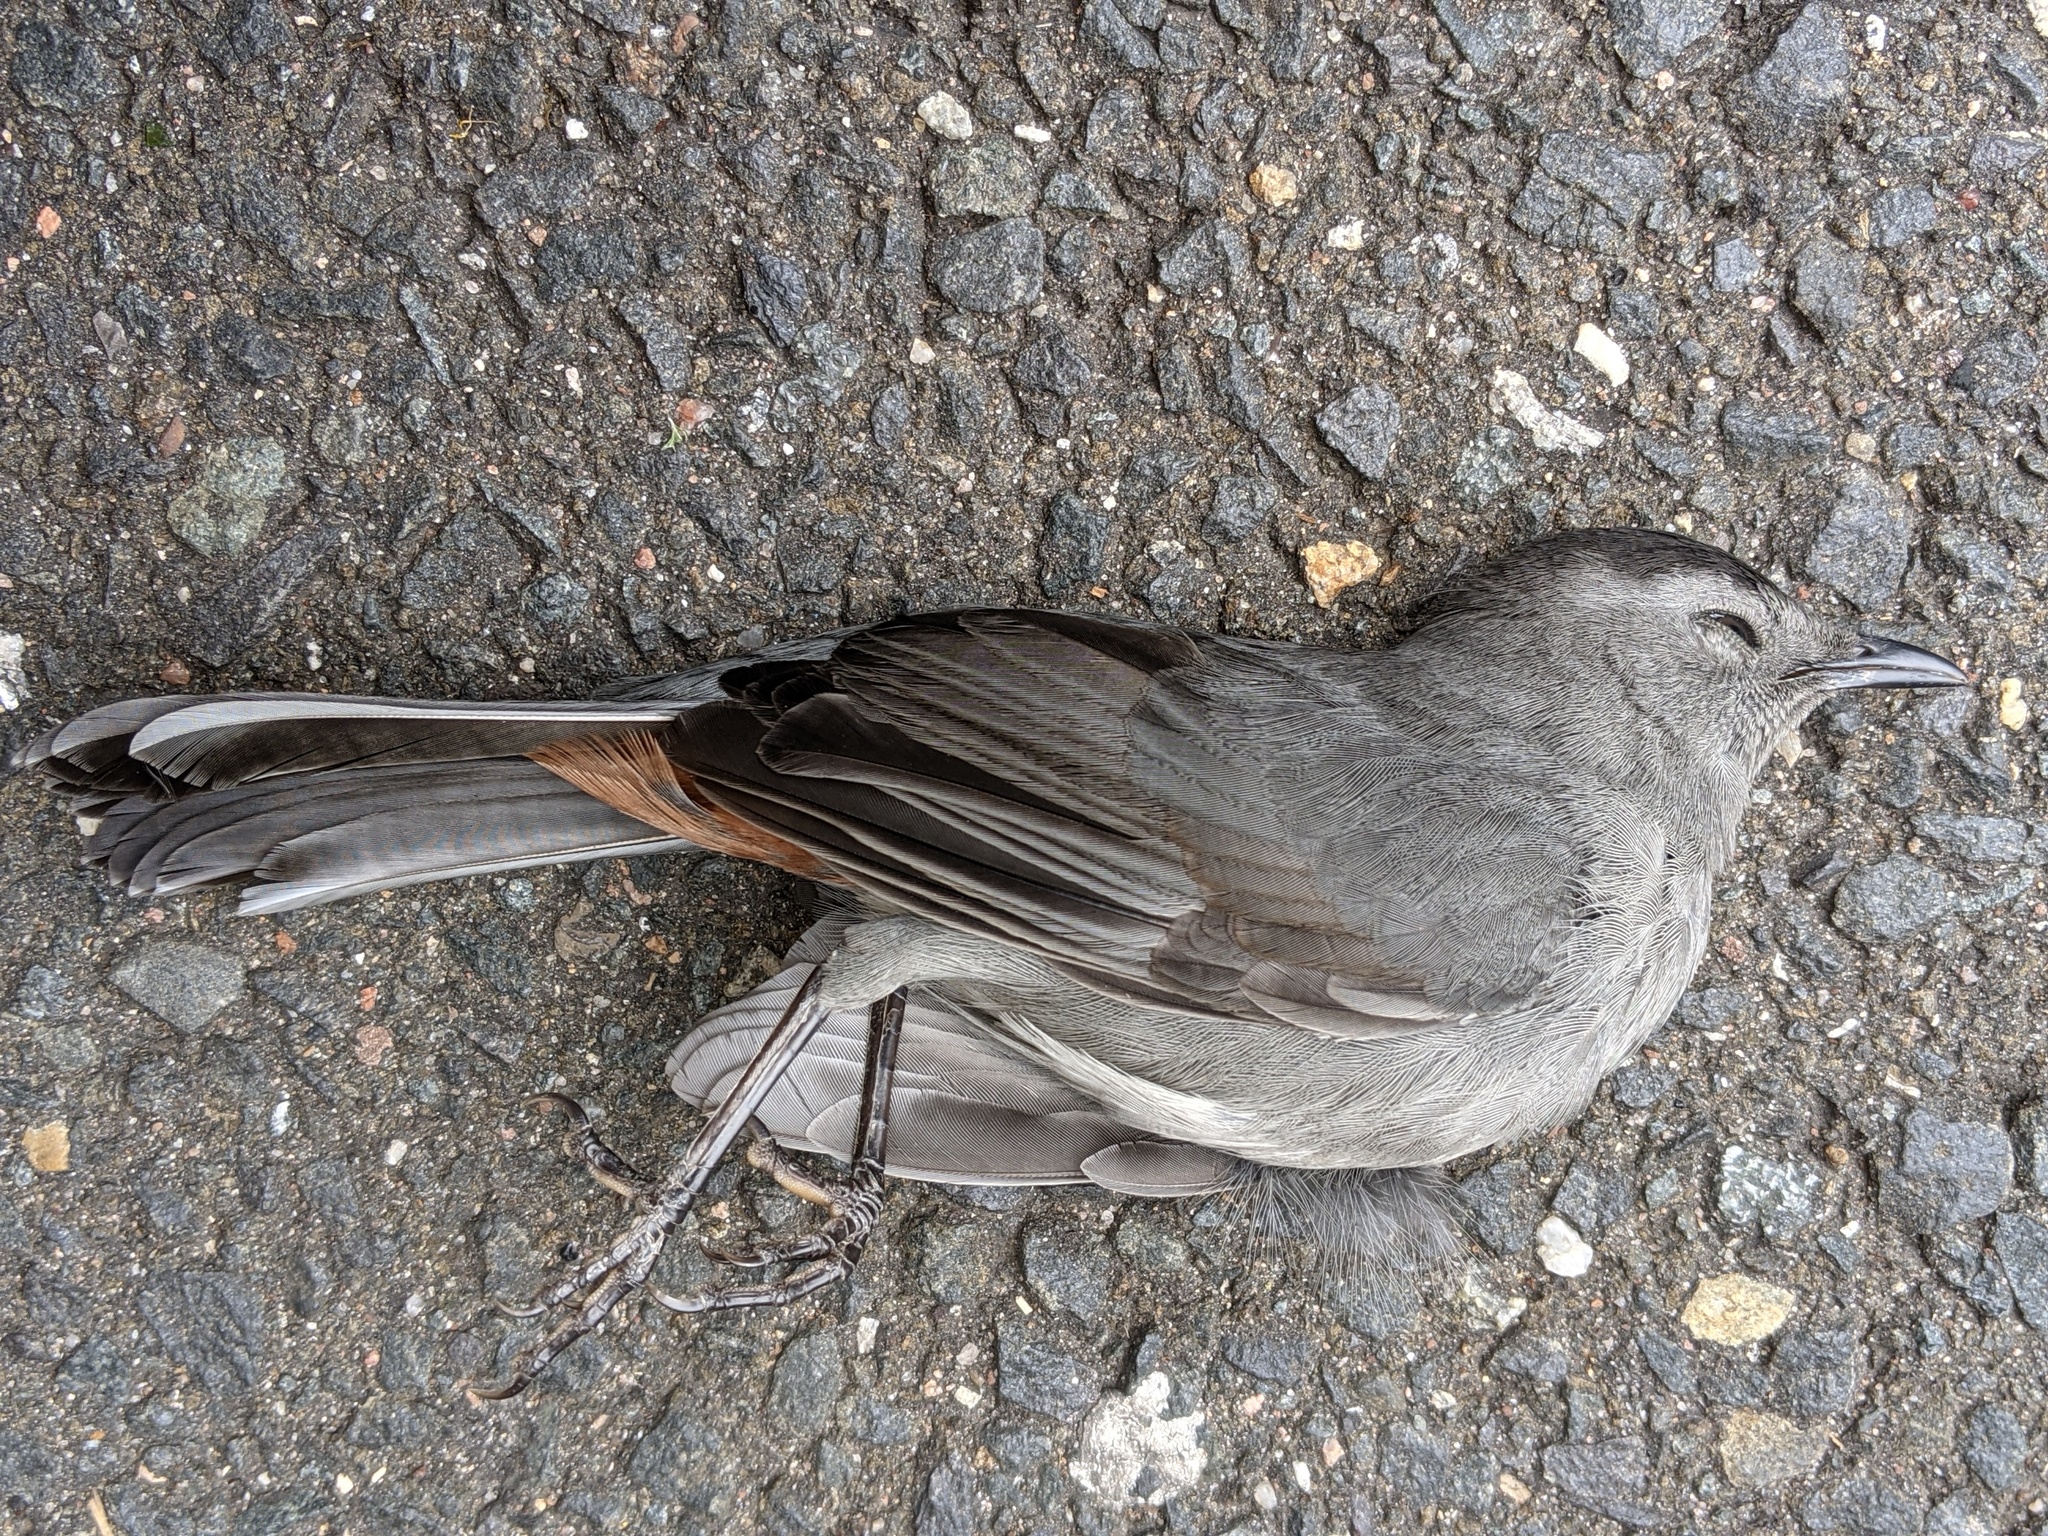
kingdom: Animalia
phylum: Chordata
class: Aves
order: Passeriformes
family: Mimidae
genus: Dumetella
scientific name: Dumetella carolinensis
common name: Gray catbird
